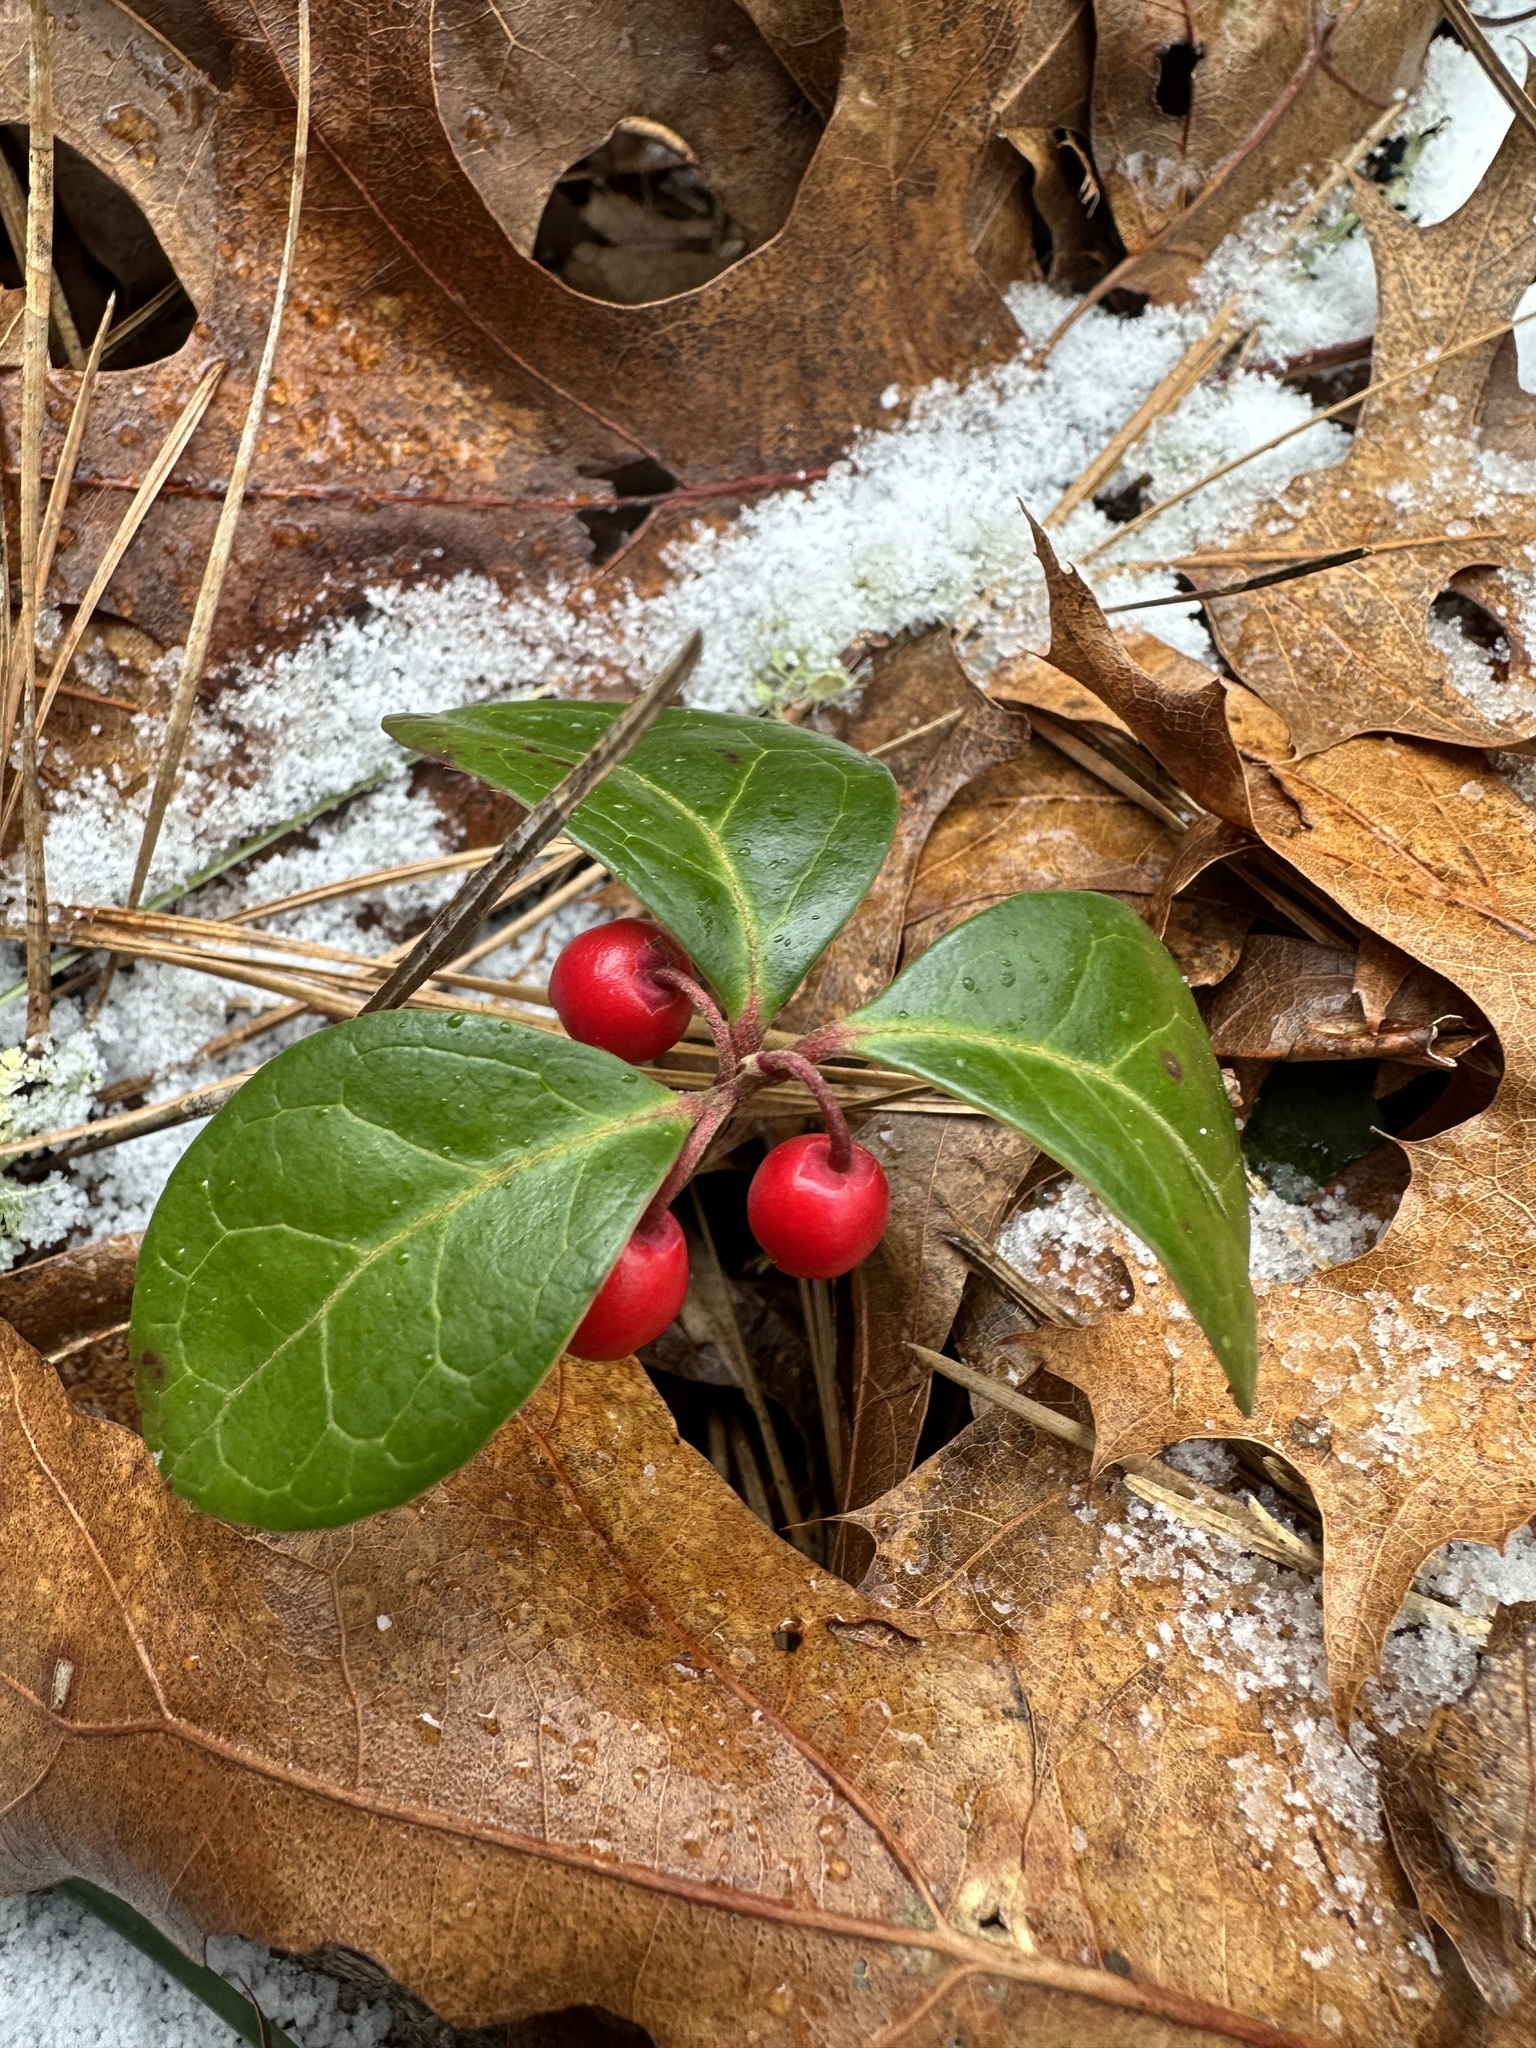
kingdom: Plantae
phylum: Tracheophyta
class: Magnoliopsida
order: Ericales
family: Ericaceae
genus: Gaultheria
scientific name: Gaultheria procumbens
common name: Checkerberry
